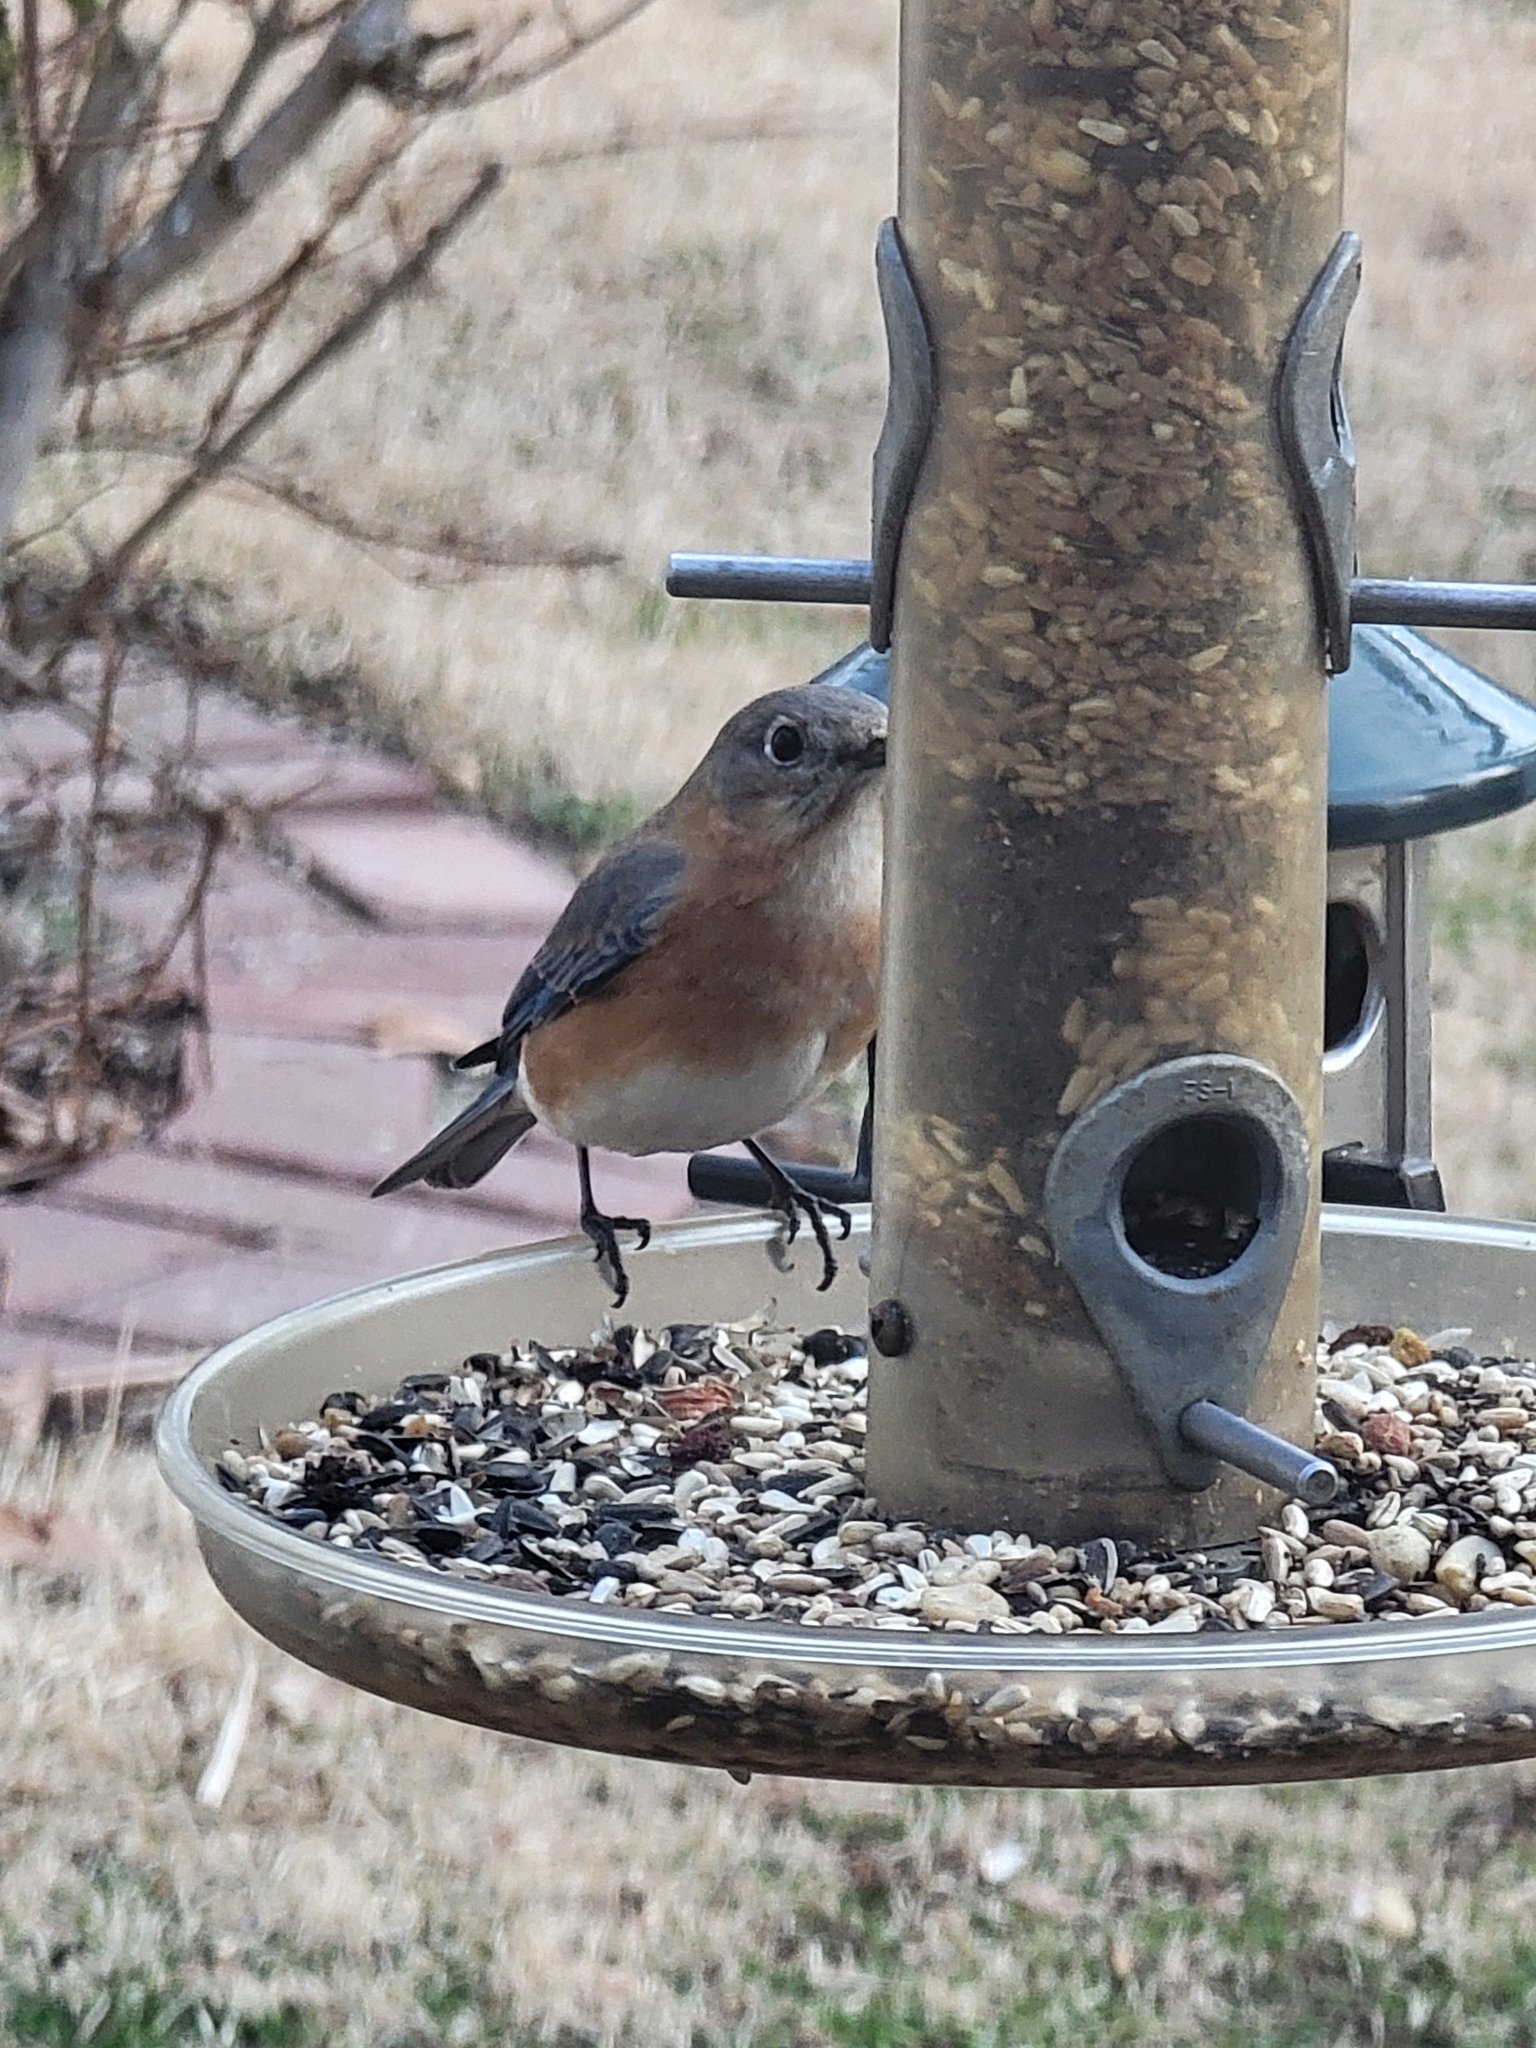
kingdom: Animalia
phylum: Chordata
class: Aves
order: Passeriformes
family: Turdidae
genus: Sialia
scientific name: Sialia sialis
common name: Eastern bluebird
